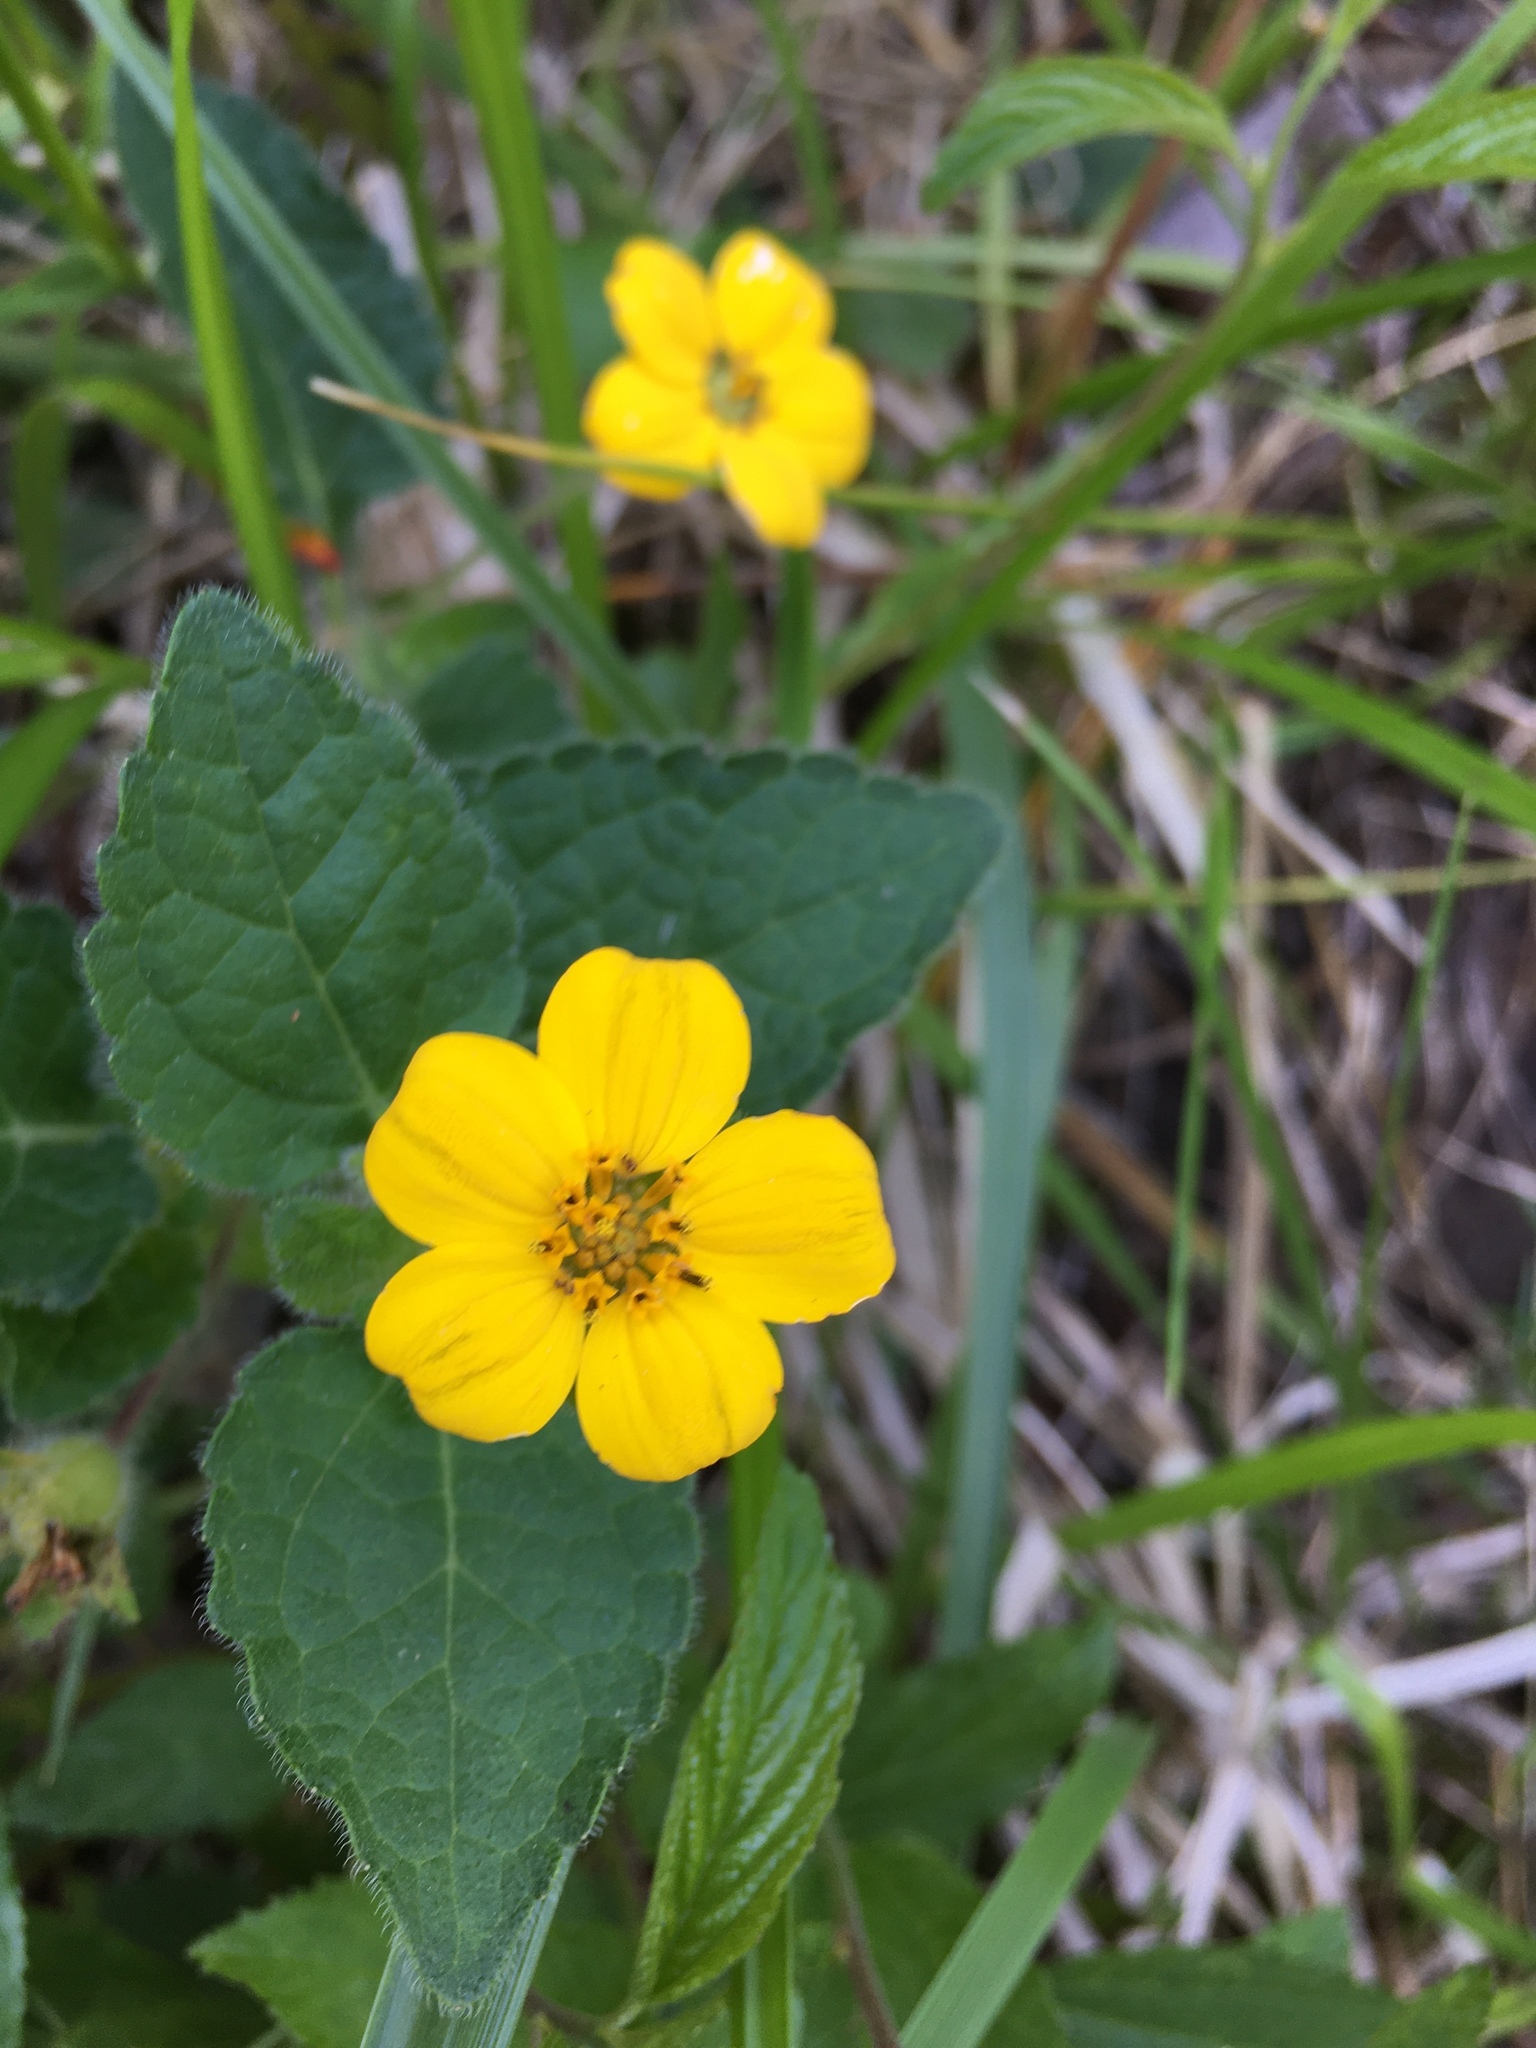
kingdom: Plantae
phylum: Tracheophyta
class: Magnoliopsida
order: Asterales
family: Asteraceae
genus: Chrysogonum
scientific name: Chrysogonum virginianum
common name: Golden-knee
